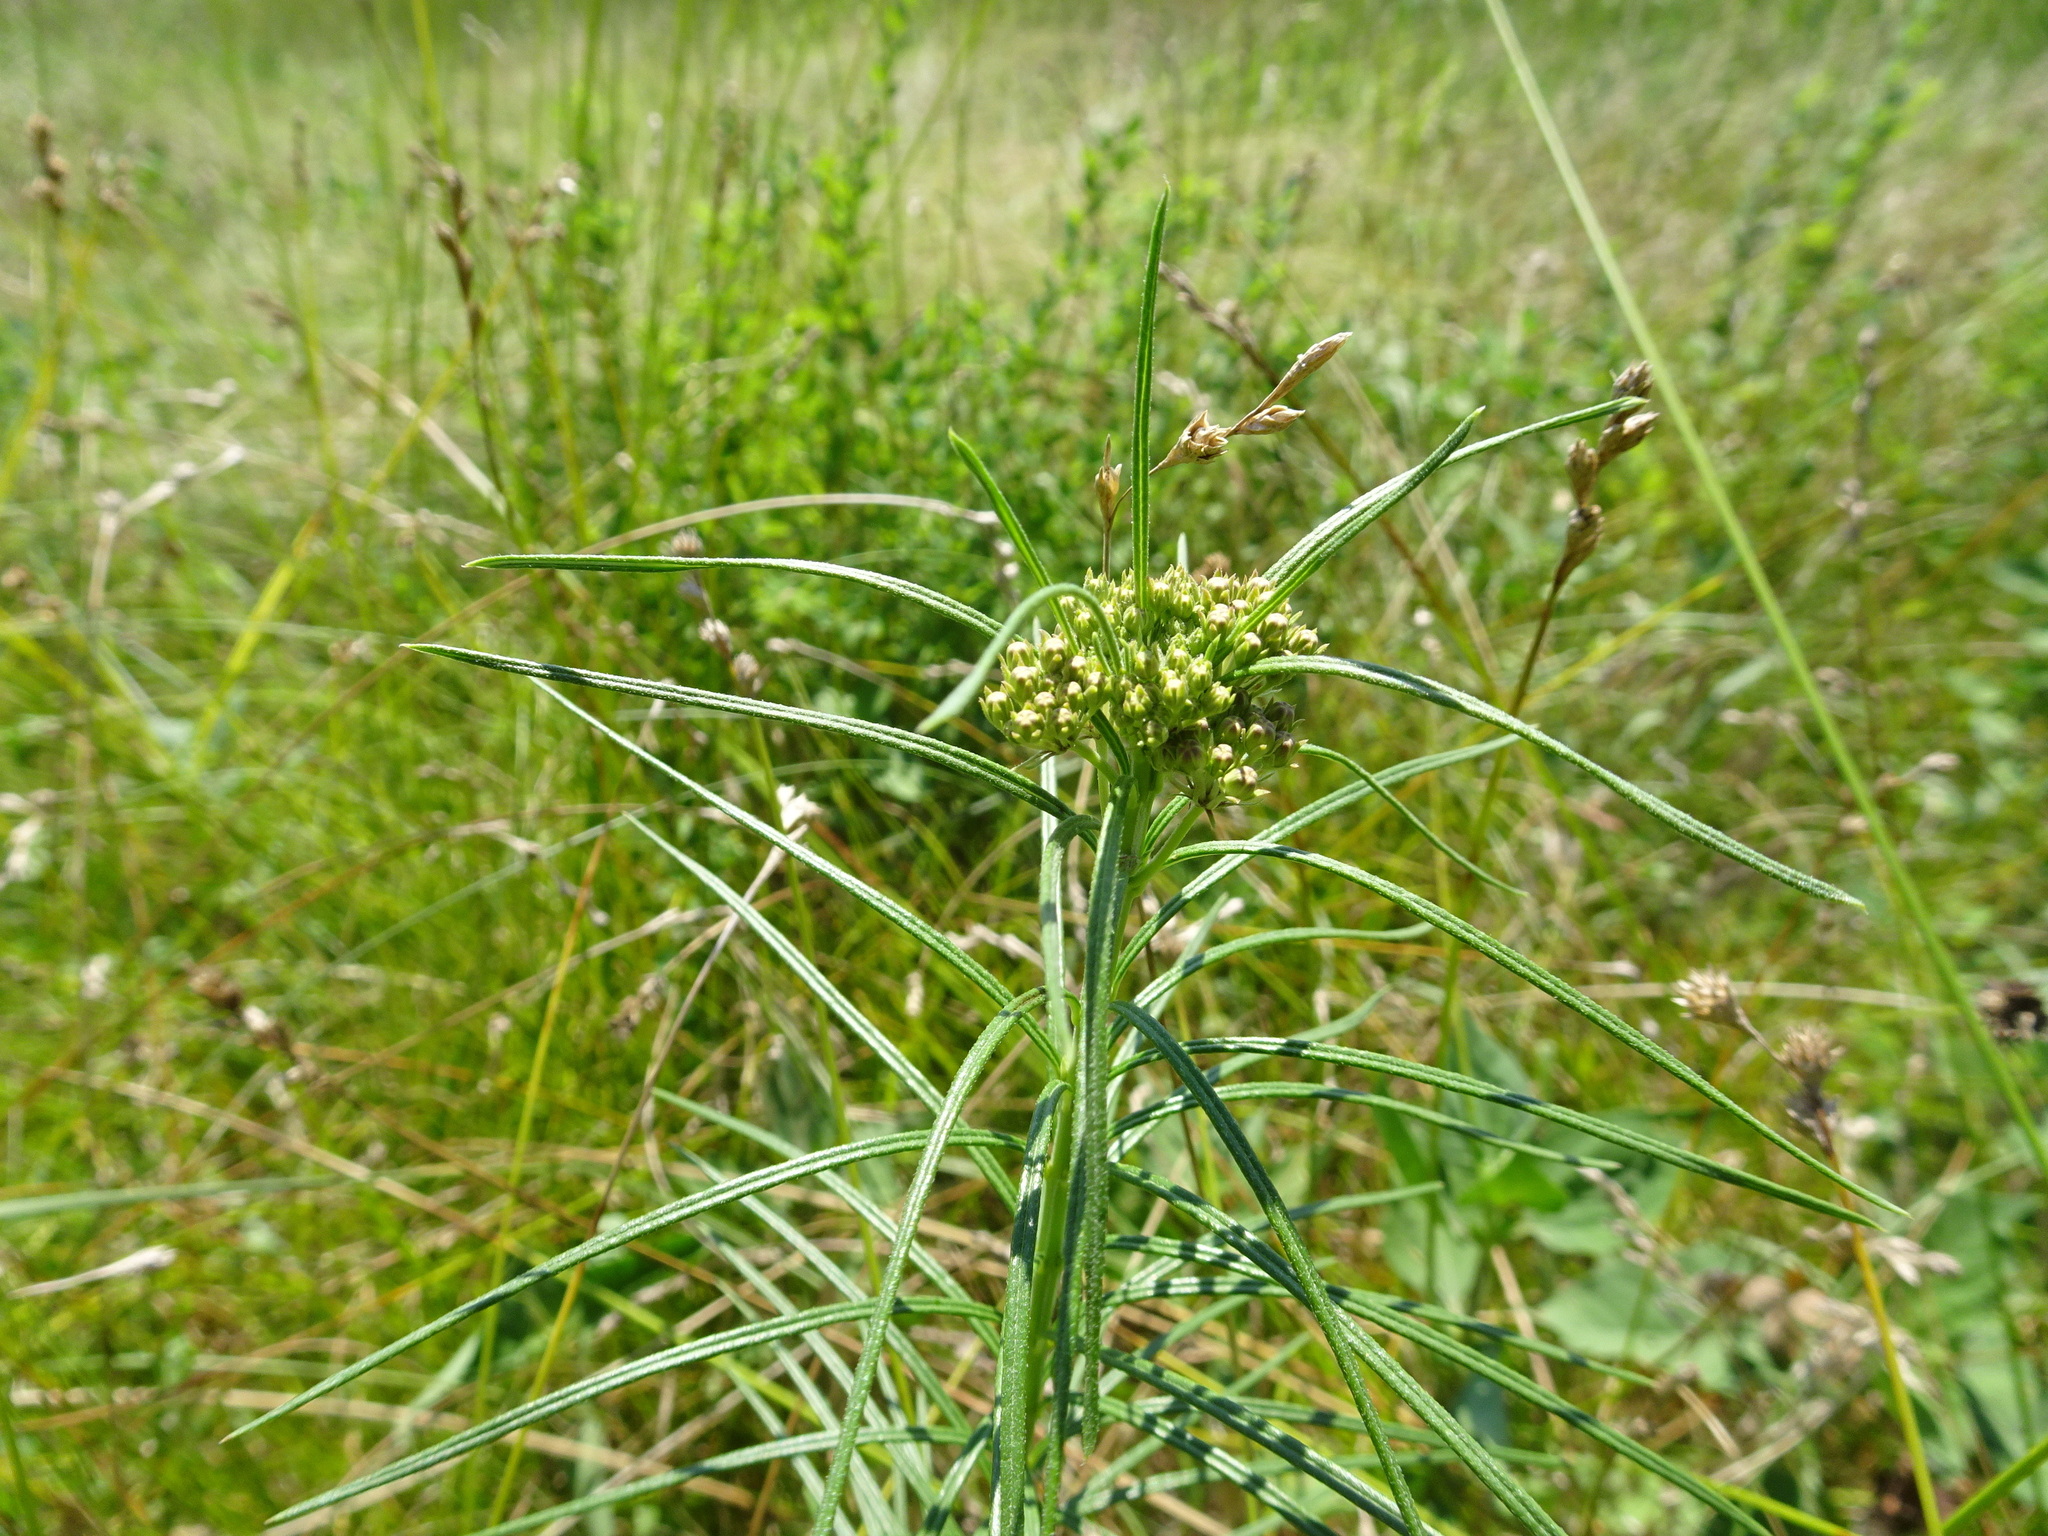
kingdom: Plantae
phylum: Tracheophyta
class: Magnoliopsida
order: Gentianales
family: Apocynaceae
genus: Asclepias
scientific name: Asclepias hirtella
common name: Prairie milkweed
